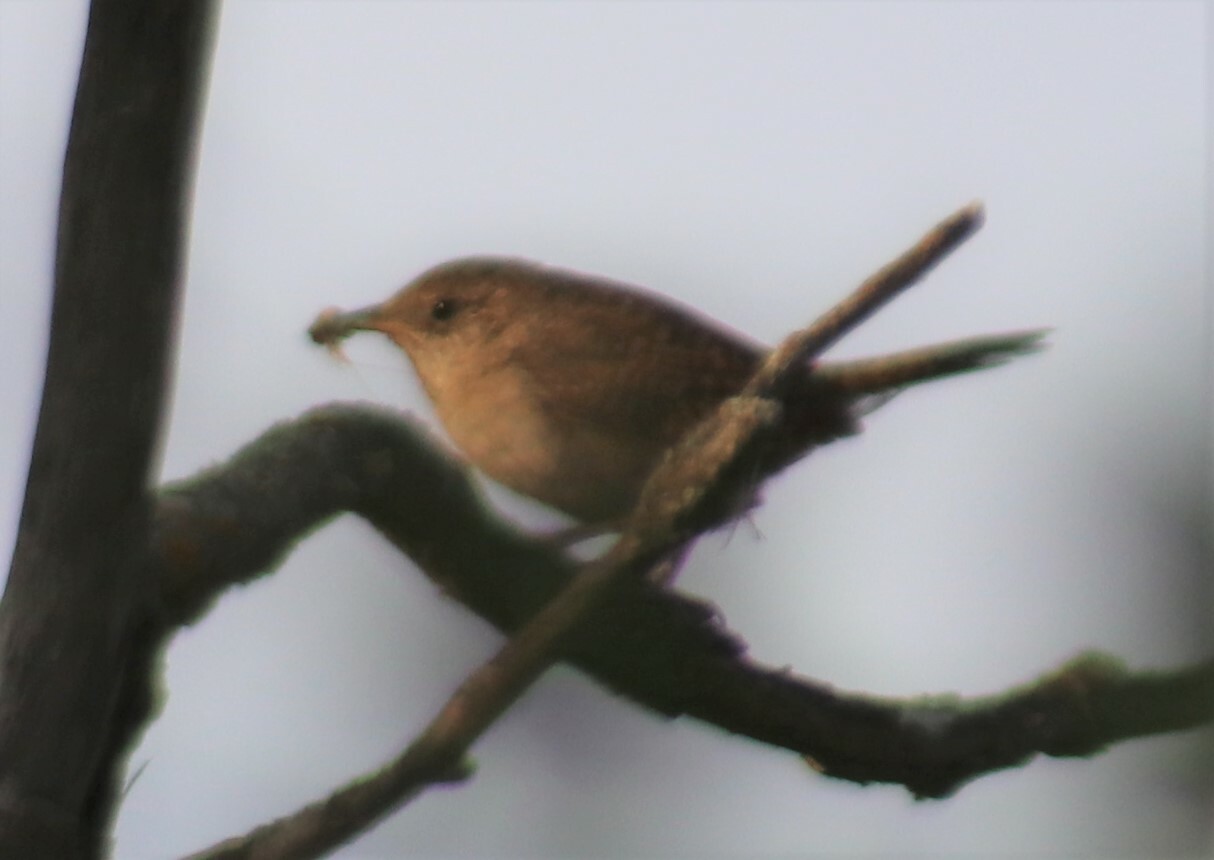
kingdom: Animalia
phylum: Chordata
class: Aves
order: Passeriformes
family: Troglodytidae
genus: Troglodytes
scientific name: Troglodytes aedon
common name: House wren
